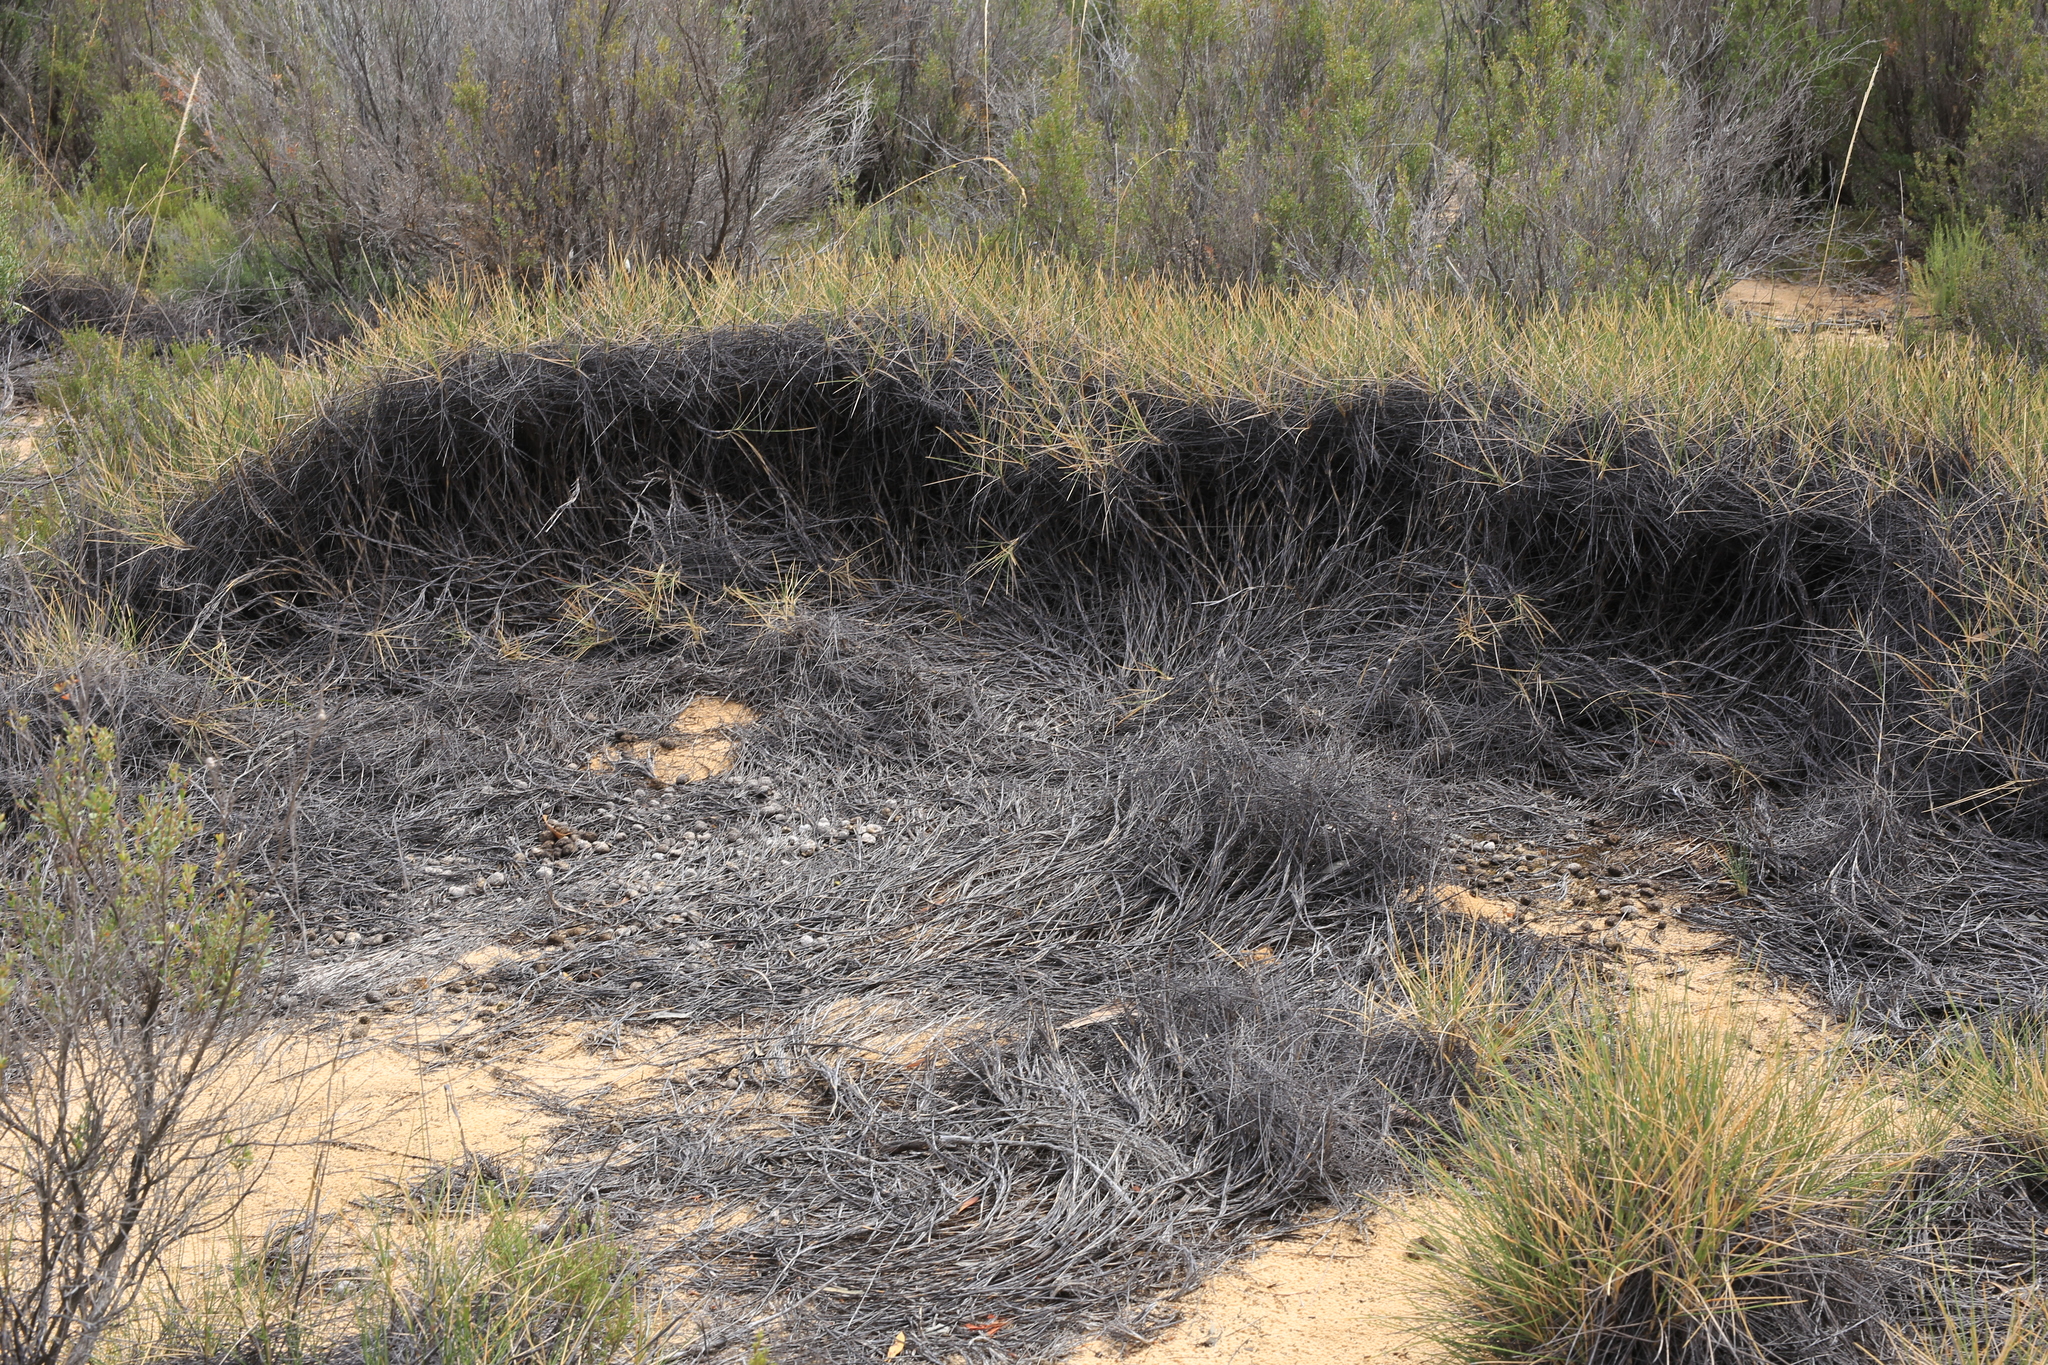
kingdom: Plantae
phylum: Tracheophyta
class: Liliopsida
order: Poales
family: Poaceae
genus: Triodia
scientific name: Triodia scariosa
